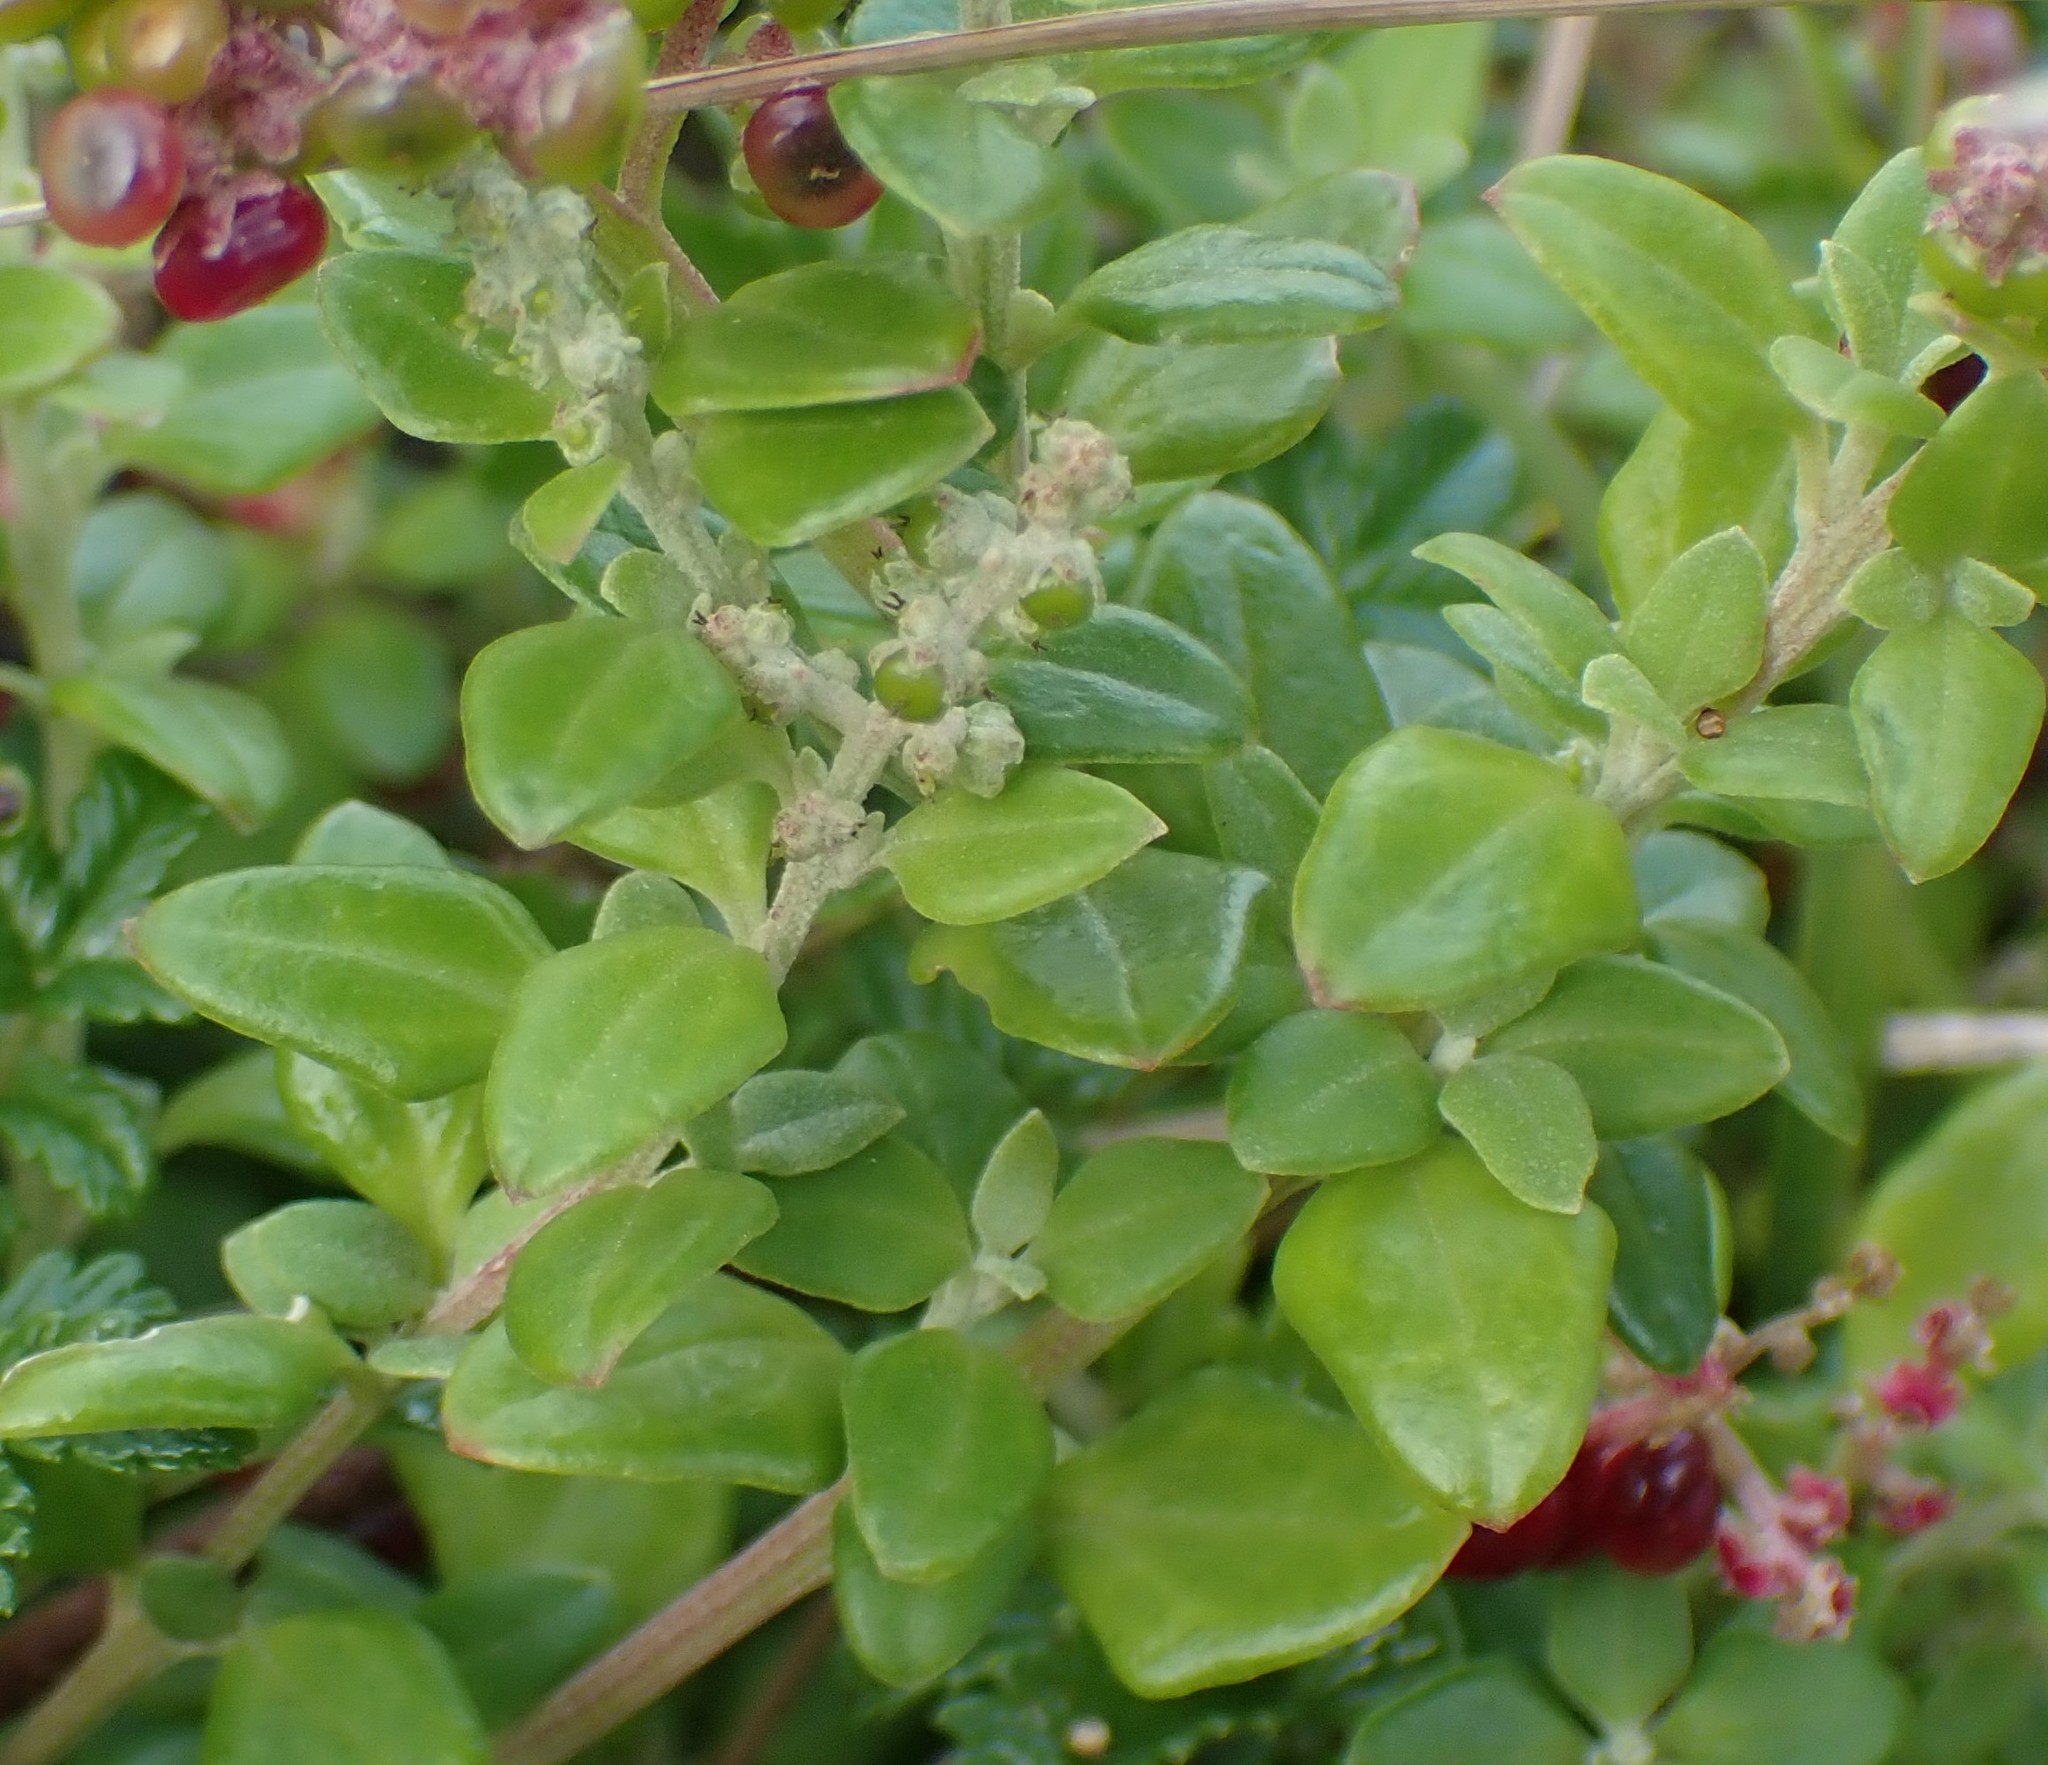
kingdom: Plantae
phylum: Tracheophyta
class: Magnoliopsida
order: Caryophyllales
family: Amaranthaceae
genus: Chenopodium
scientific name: Chenopodium candolleanum
